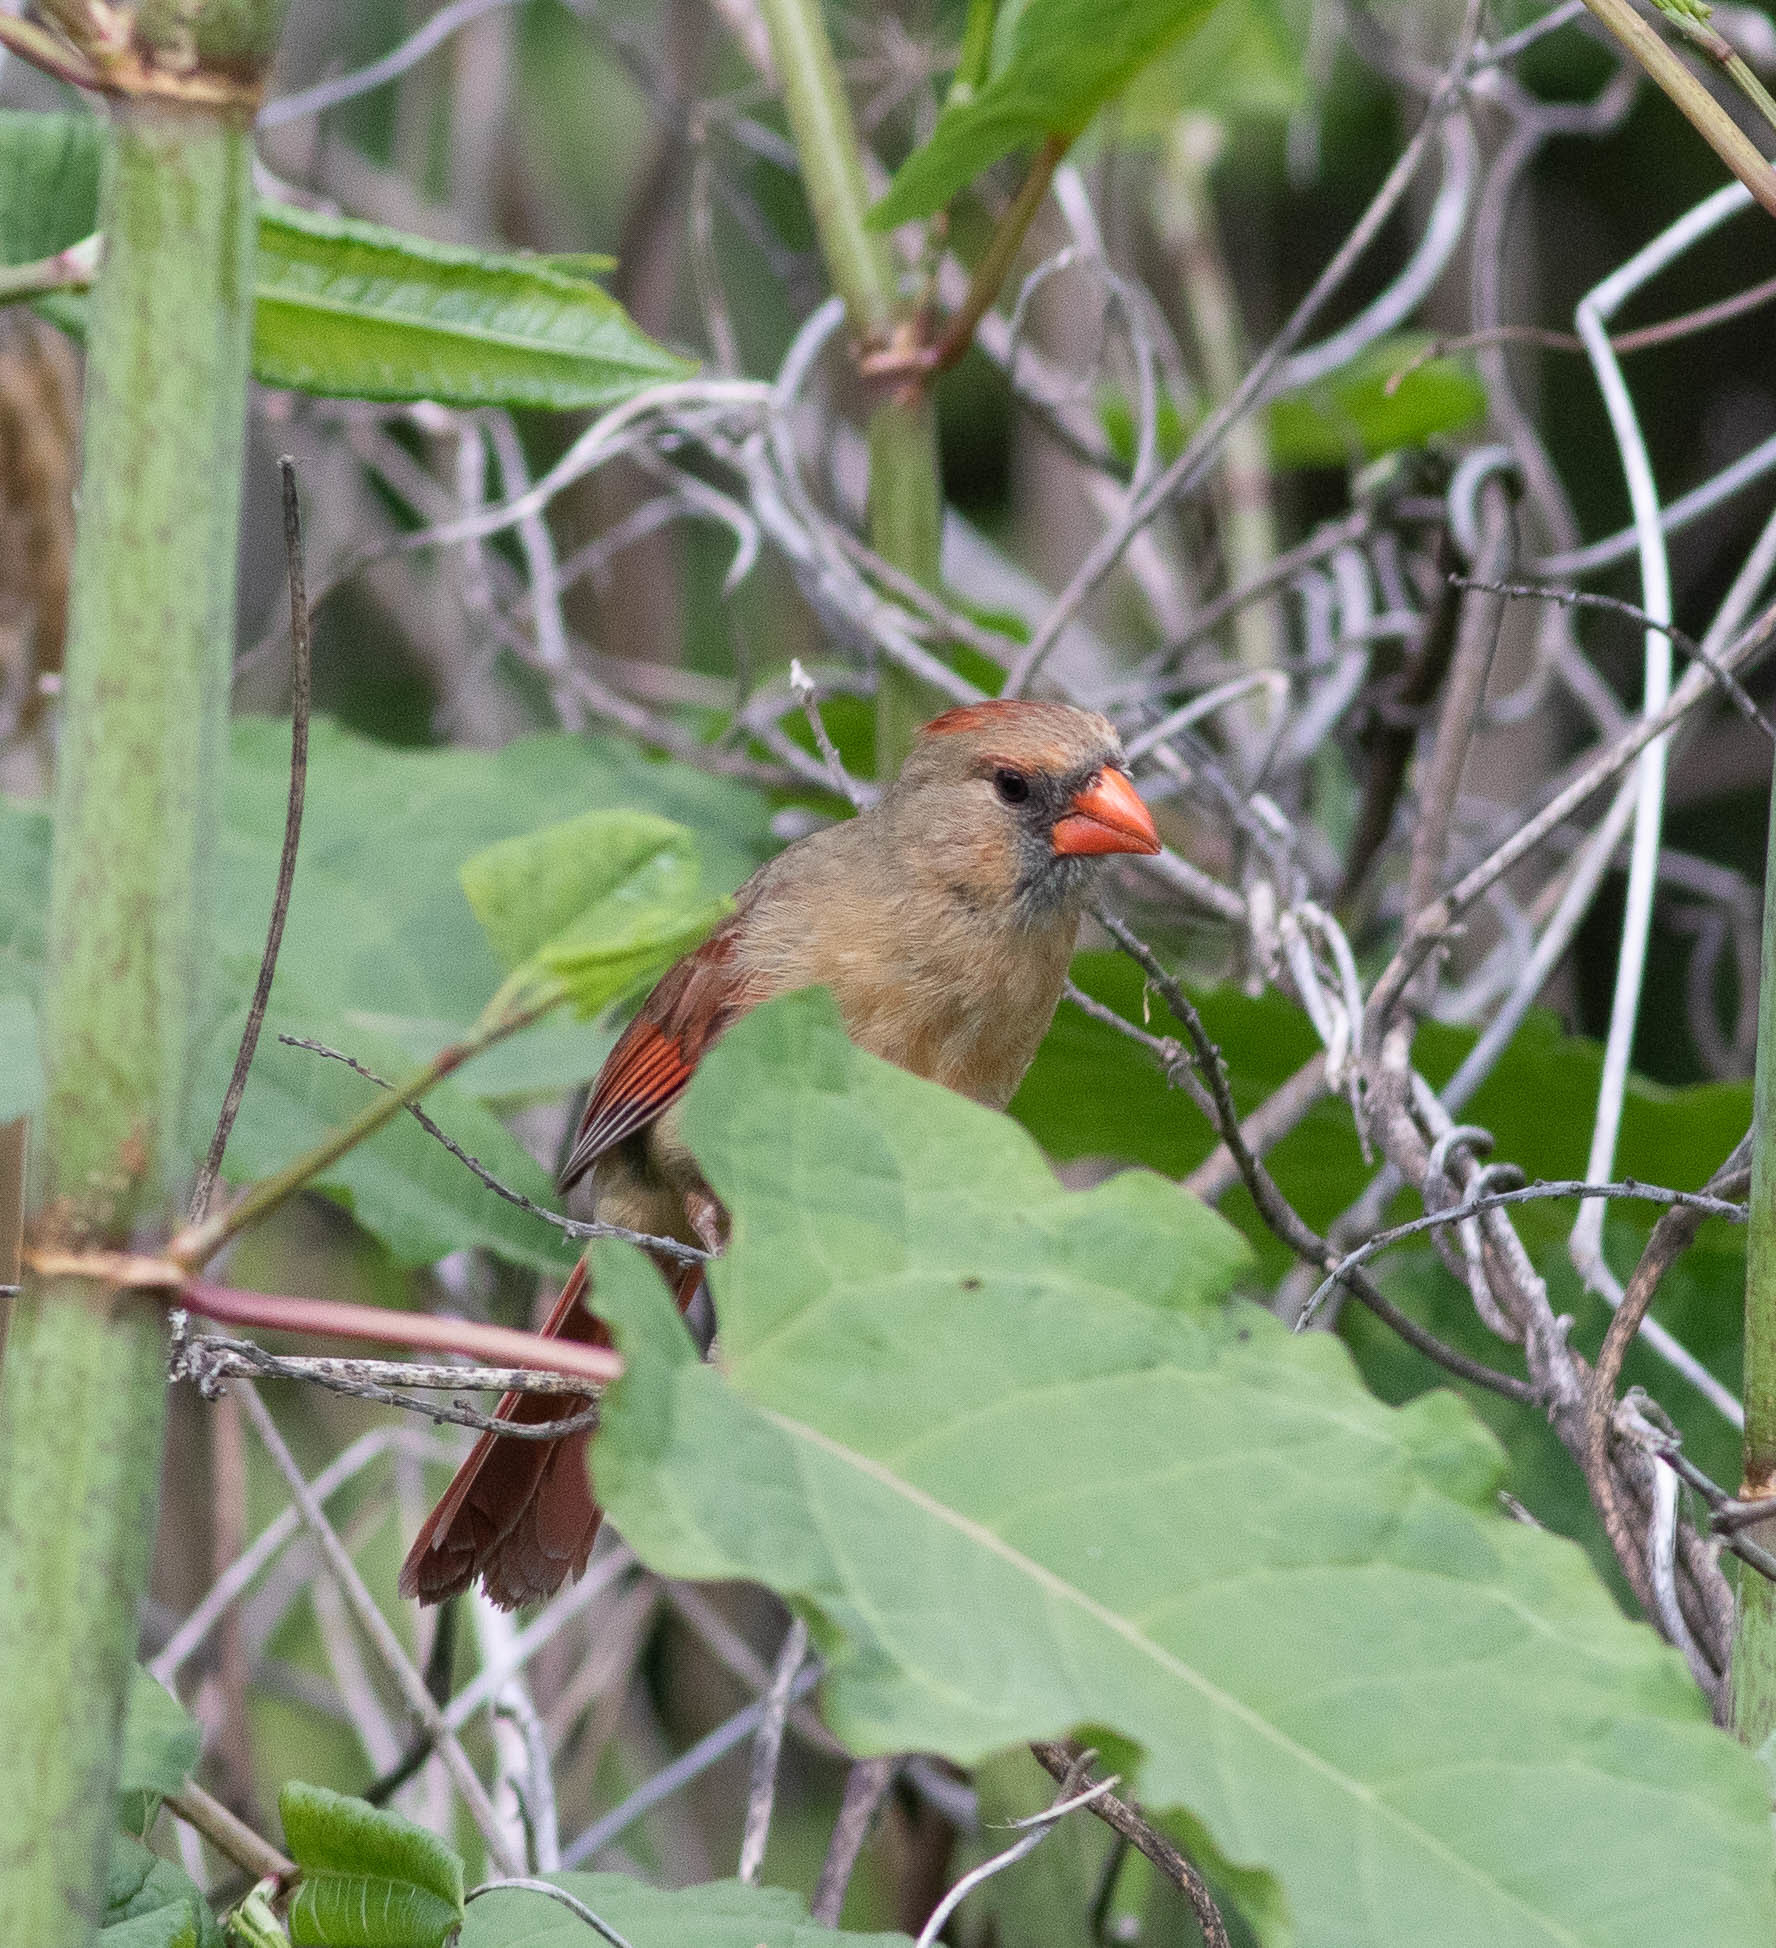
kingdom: Animalia
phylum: Chordata
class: Aves
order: Passeriformes
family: Cardinalidae
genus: Cardinalis
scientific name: Cardinalis cardinalis
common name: Northern cardinal
